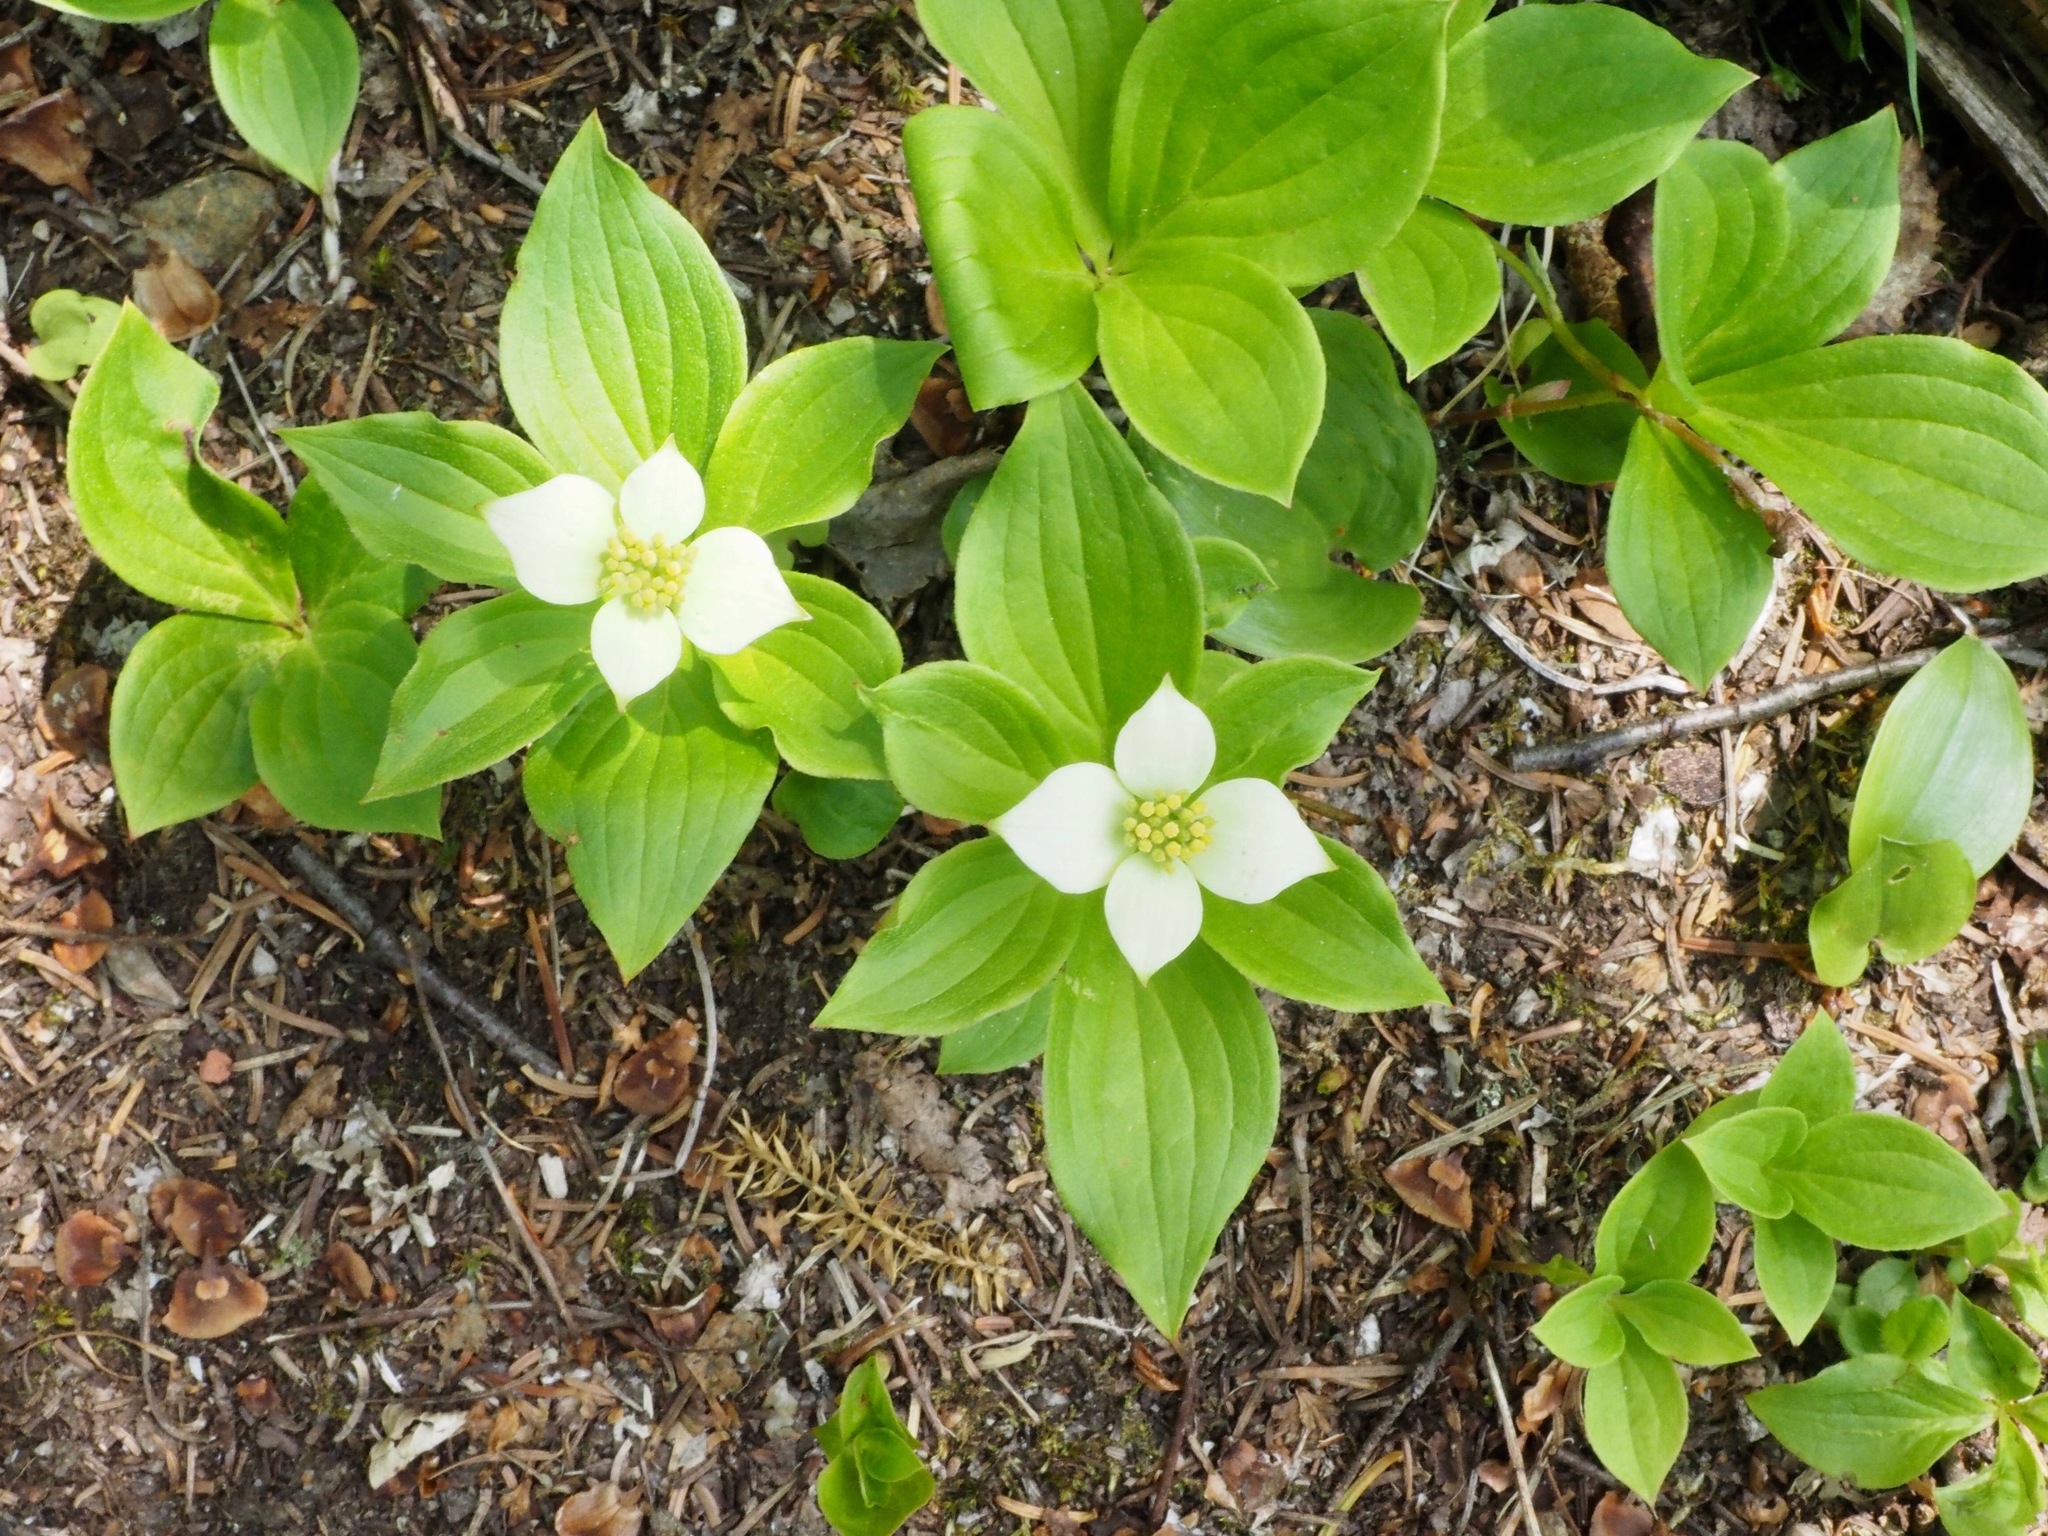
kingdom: Plantae
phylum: Tracheophyta
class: Magnoliopsida
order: Cornales
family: Cornaceae
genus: Cornus
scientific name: Cornus canadensis
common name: Creeping dogwood
